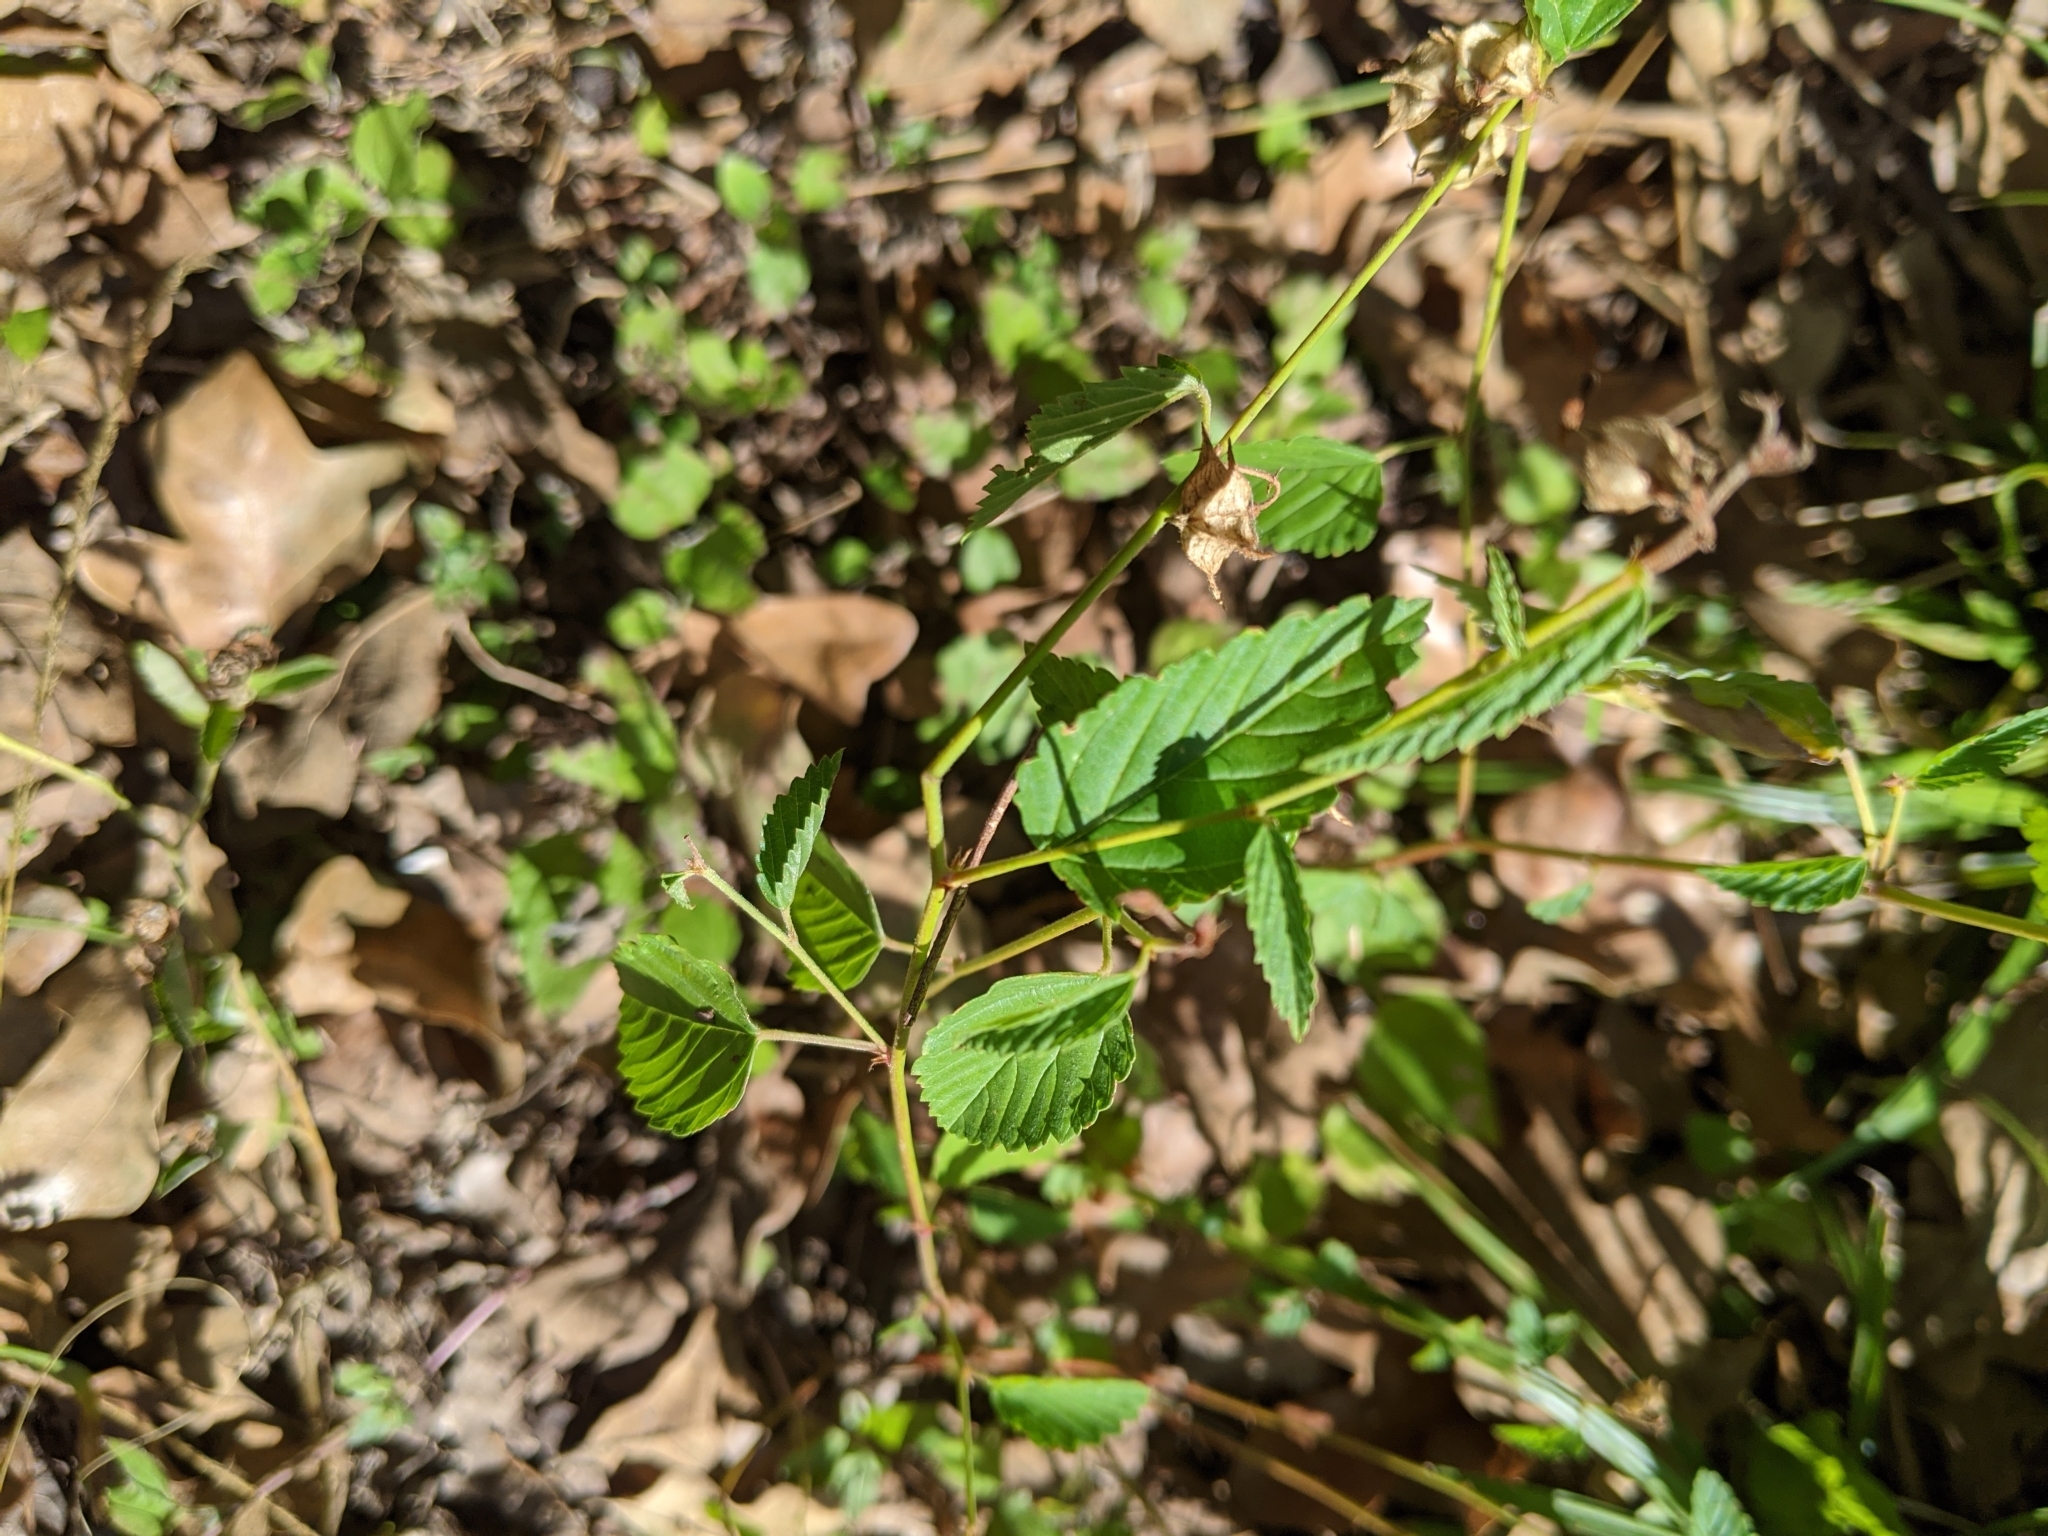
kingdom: Plantae
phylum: Tracheophyta
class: Magnoliopsida
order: Malvales
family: Malvaceae
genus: Melochia
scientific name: Melochia pyramidata
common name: Pyramidflower
